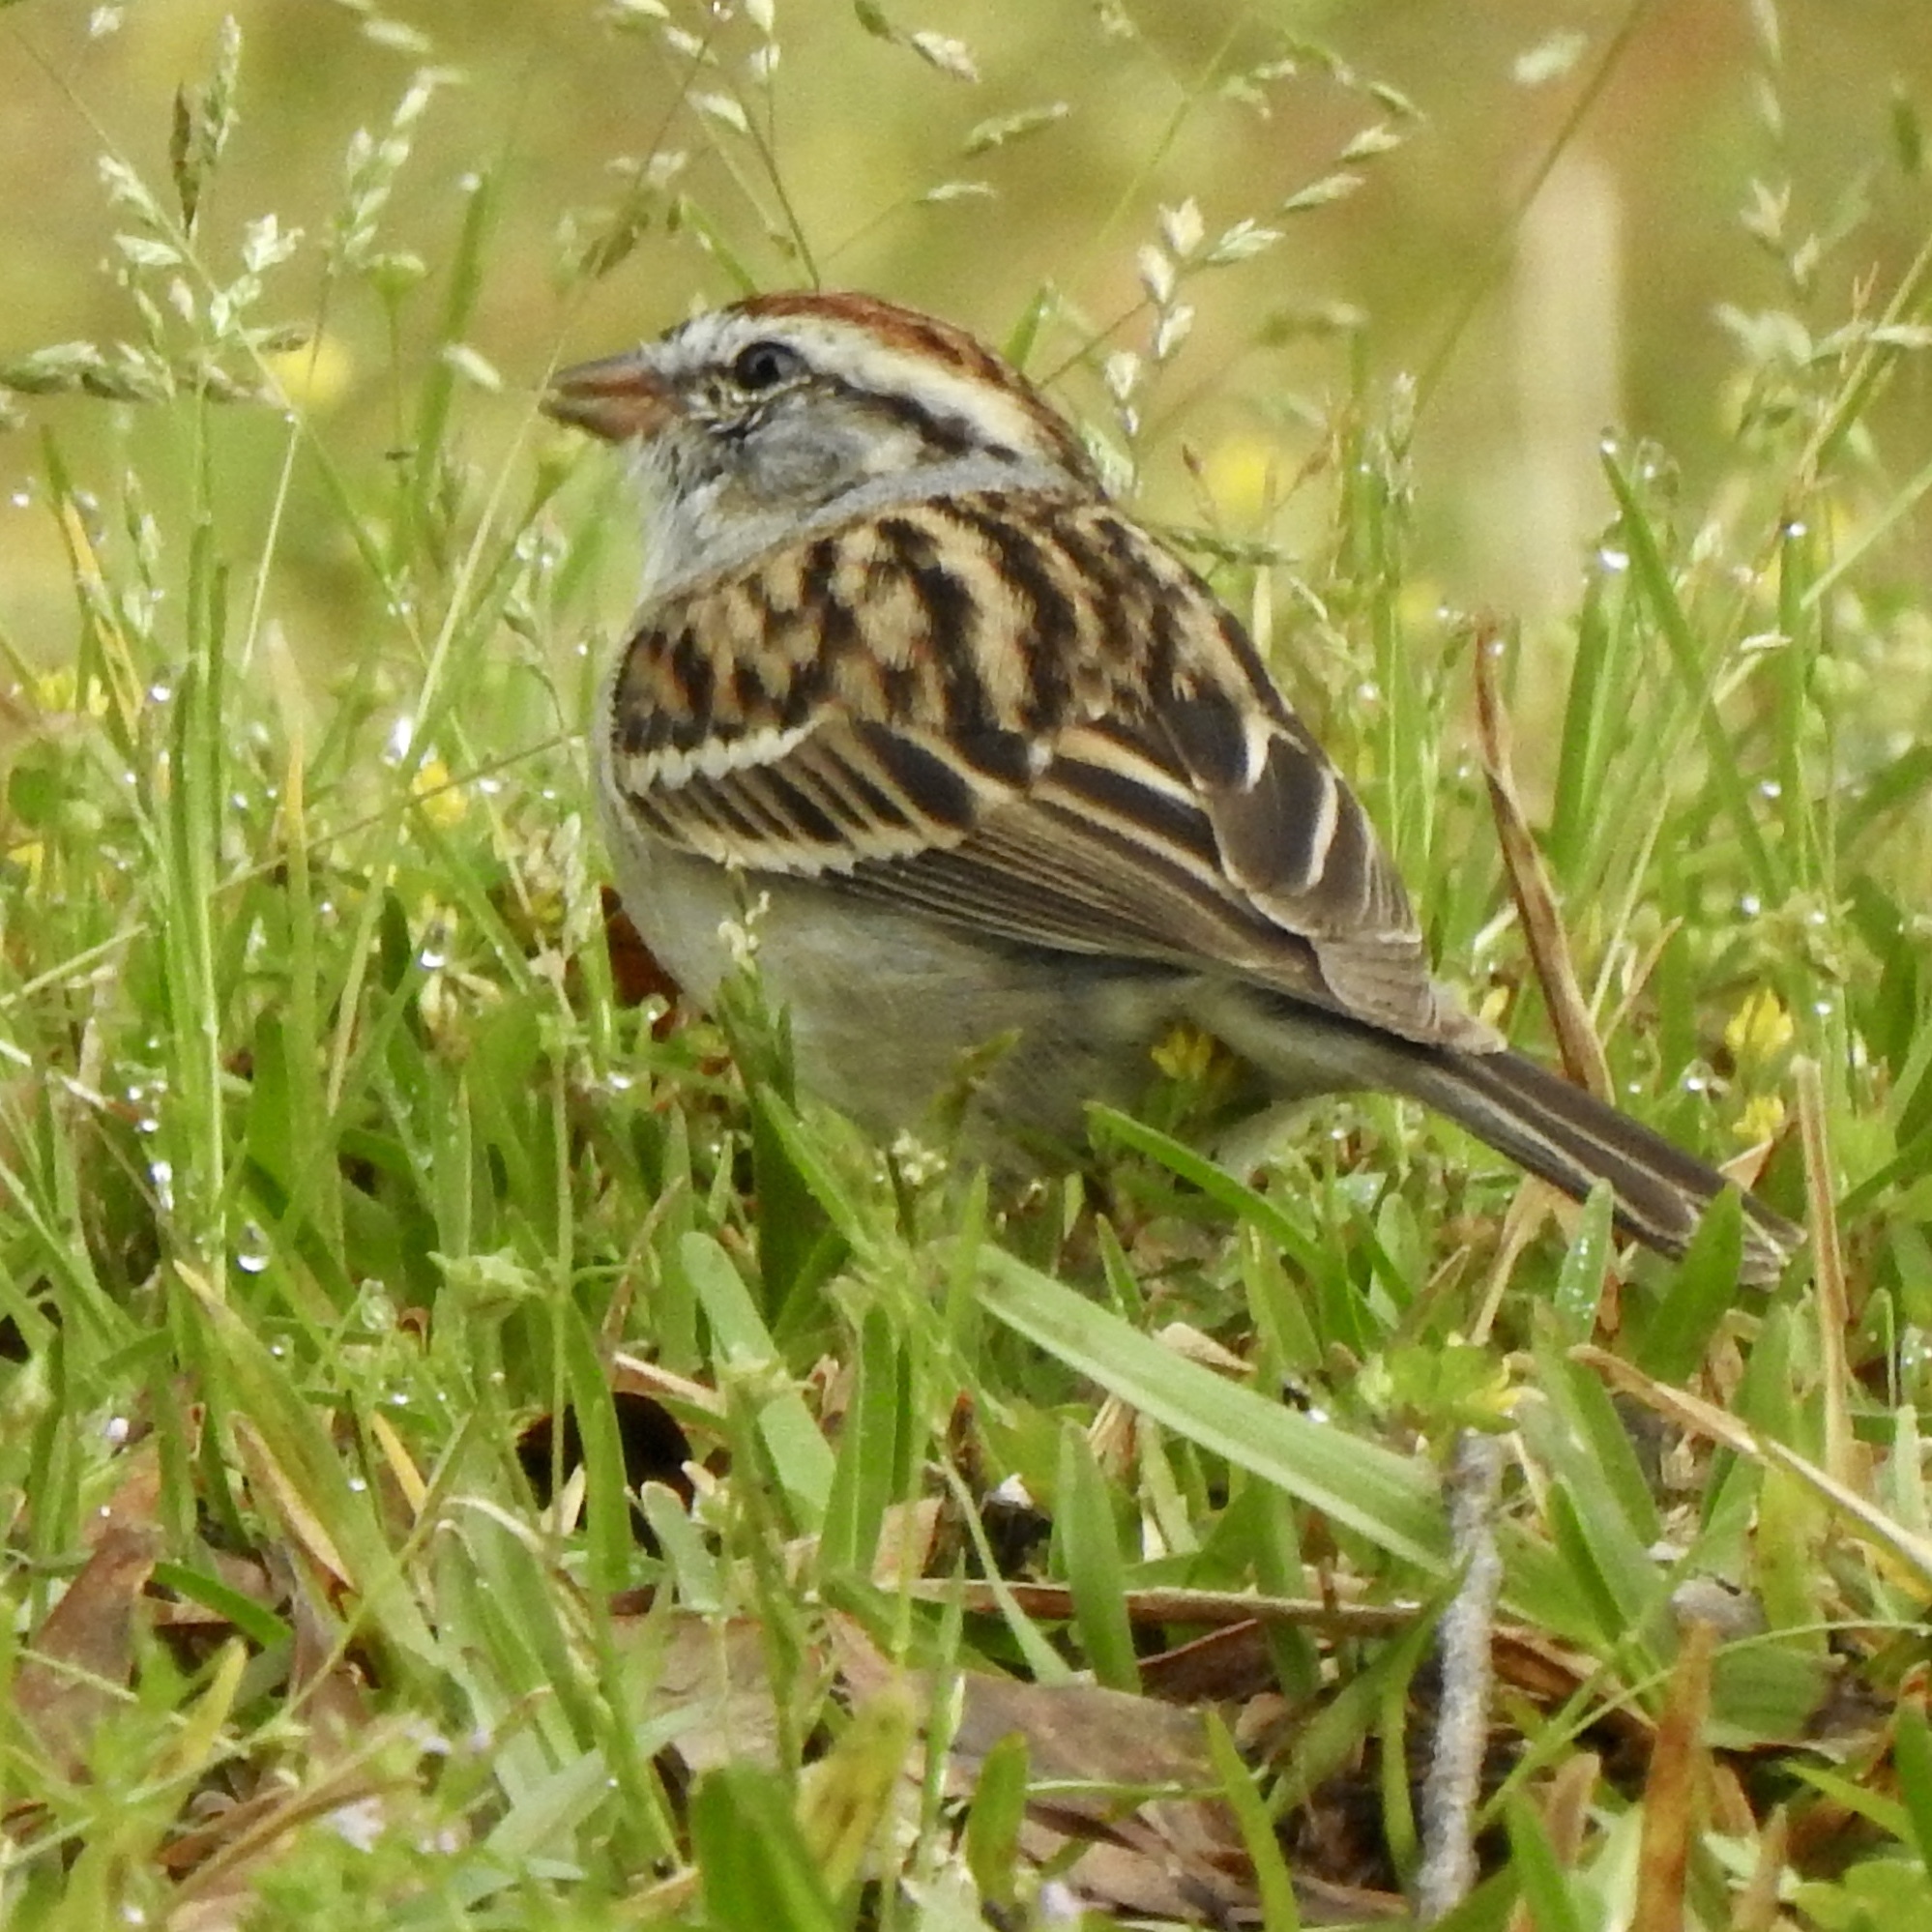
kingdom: Animalia
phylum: Chordata
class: Aves
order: Passeriformes
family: Passerellidae
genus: Spizella
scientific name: Spizella passerina
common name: Chipping sparrow
